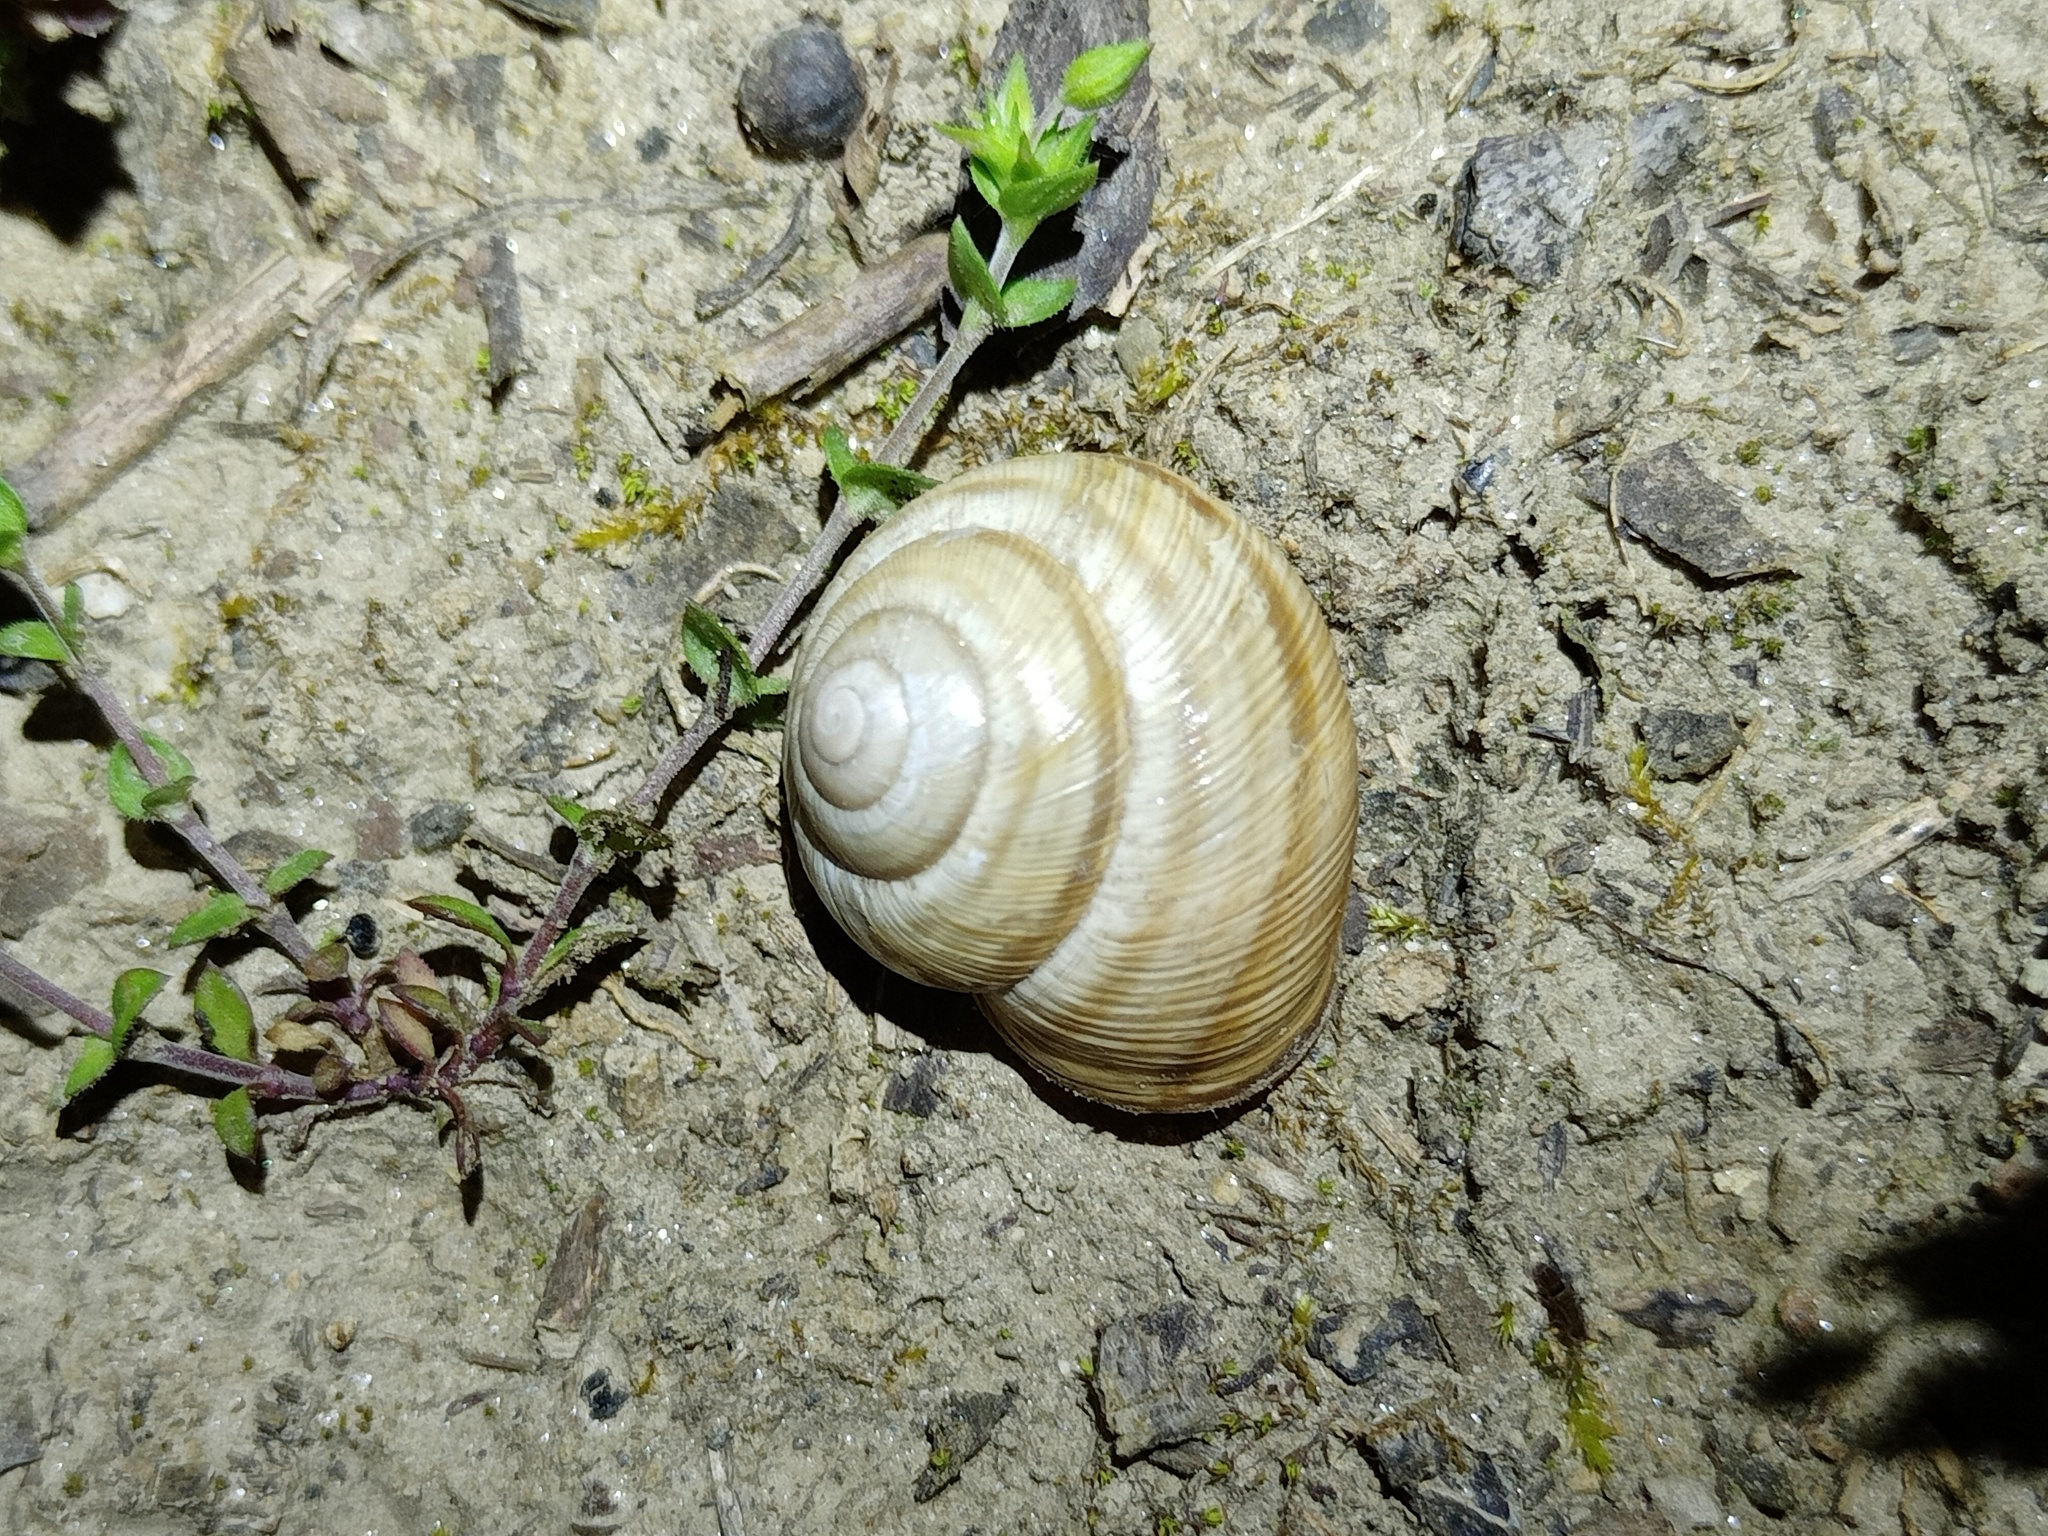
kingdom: Animalia
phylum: Mollusca
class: Gastropoda
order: Stylommatophora
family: Helicidae
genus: Caucasotachea
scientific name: Caucasotachea vindobonensis
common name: European helicid land snail
